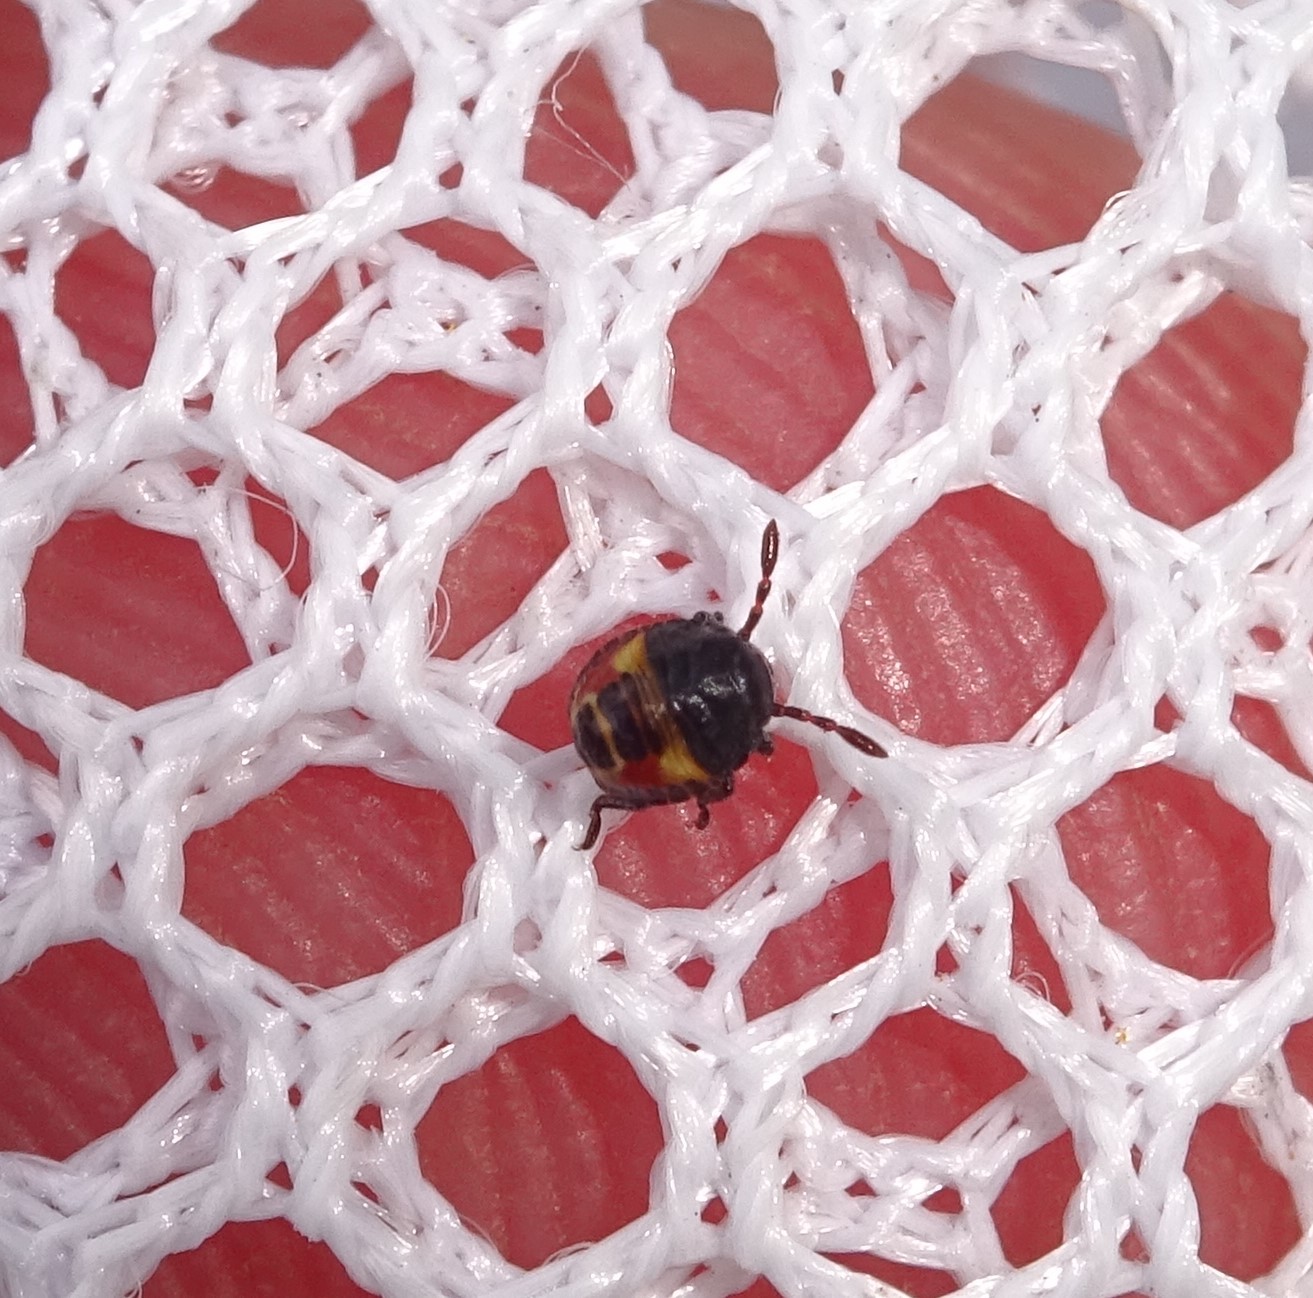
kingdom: Animalia
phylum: Arthropoda
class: Insecta
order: Hemiptera
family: Pentatomidae
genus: Carpocoris
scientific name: Carpocoris
